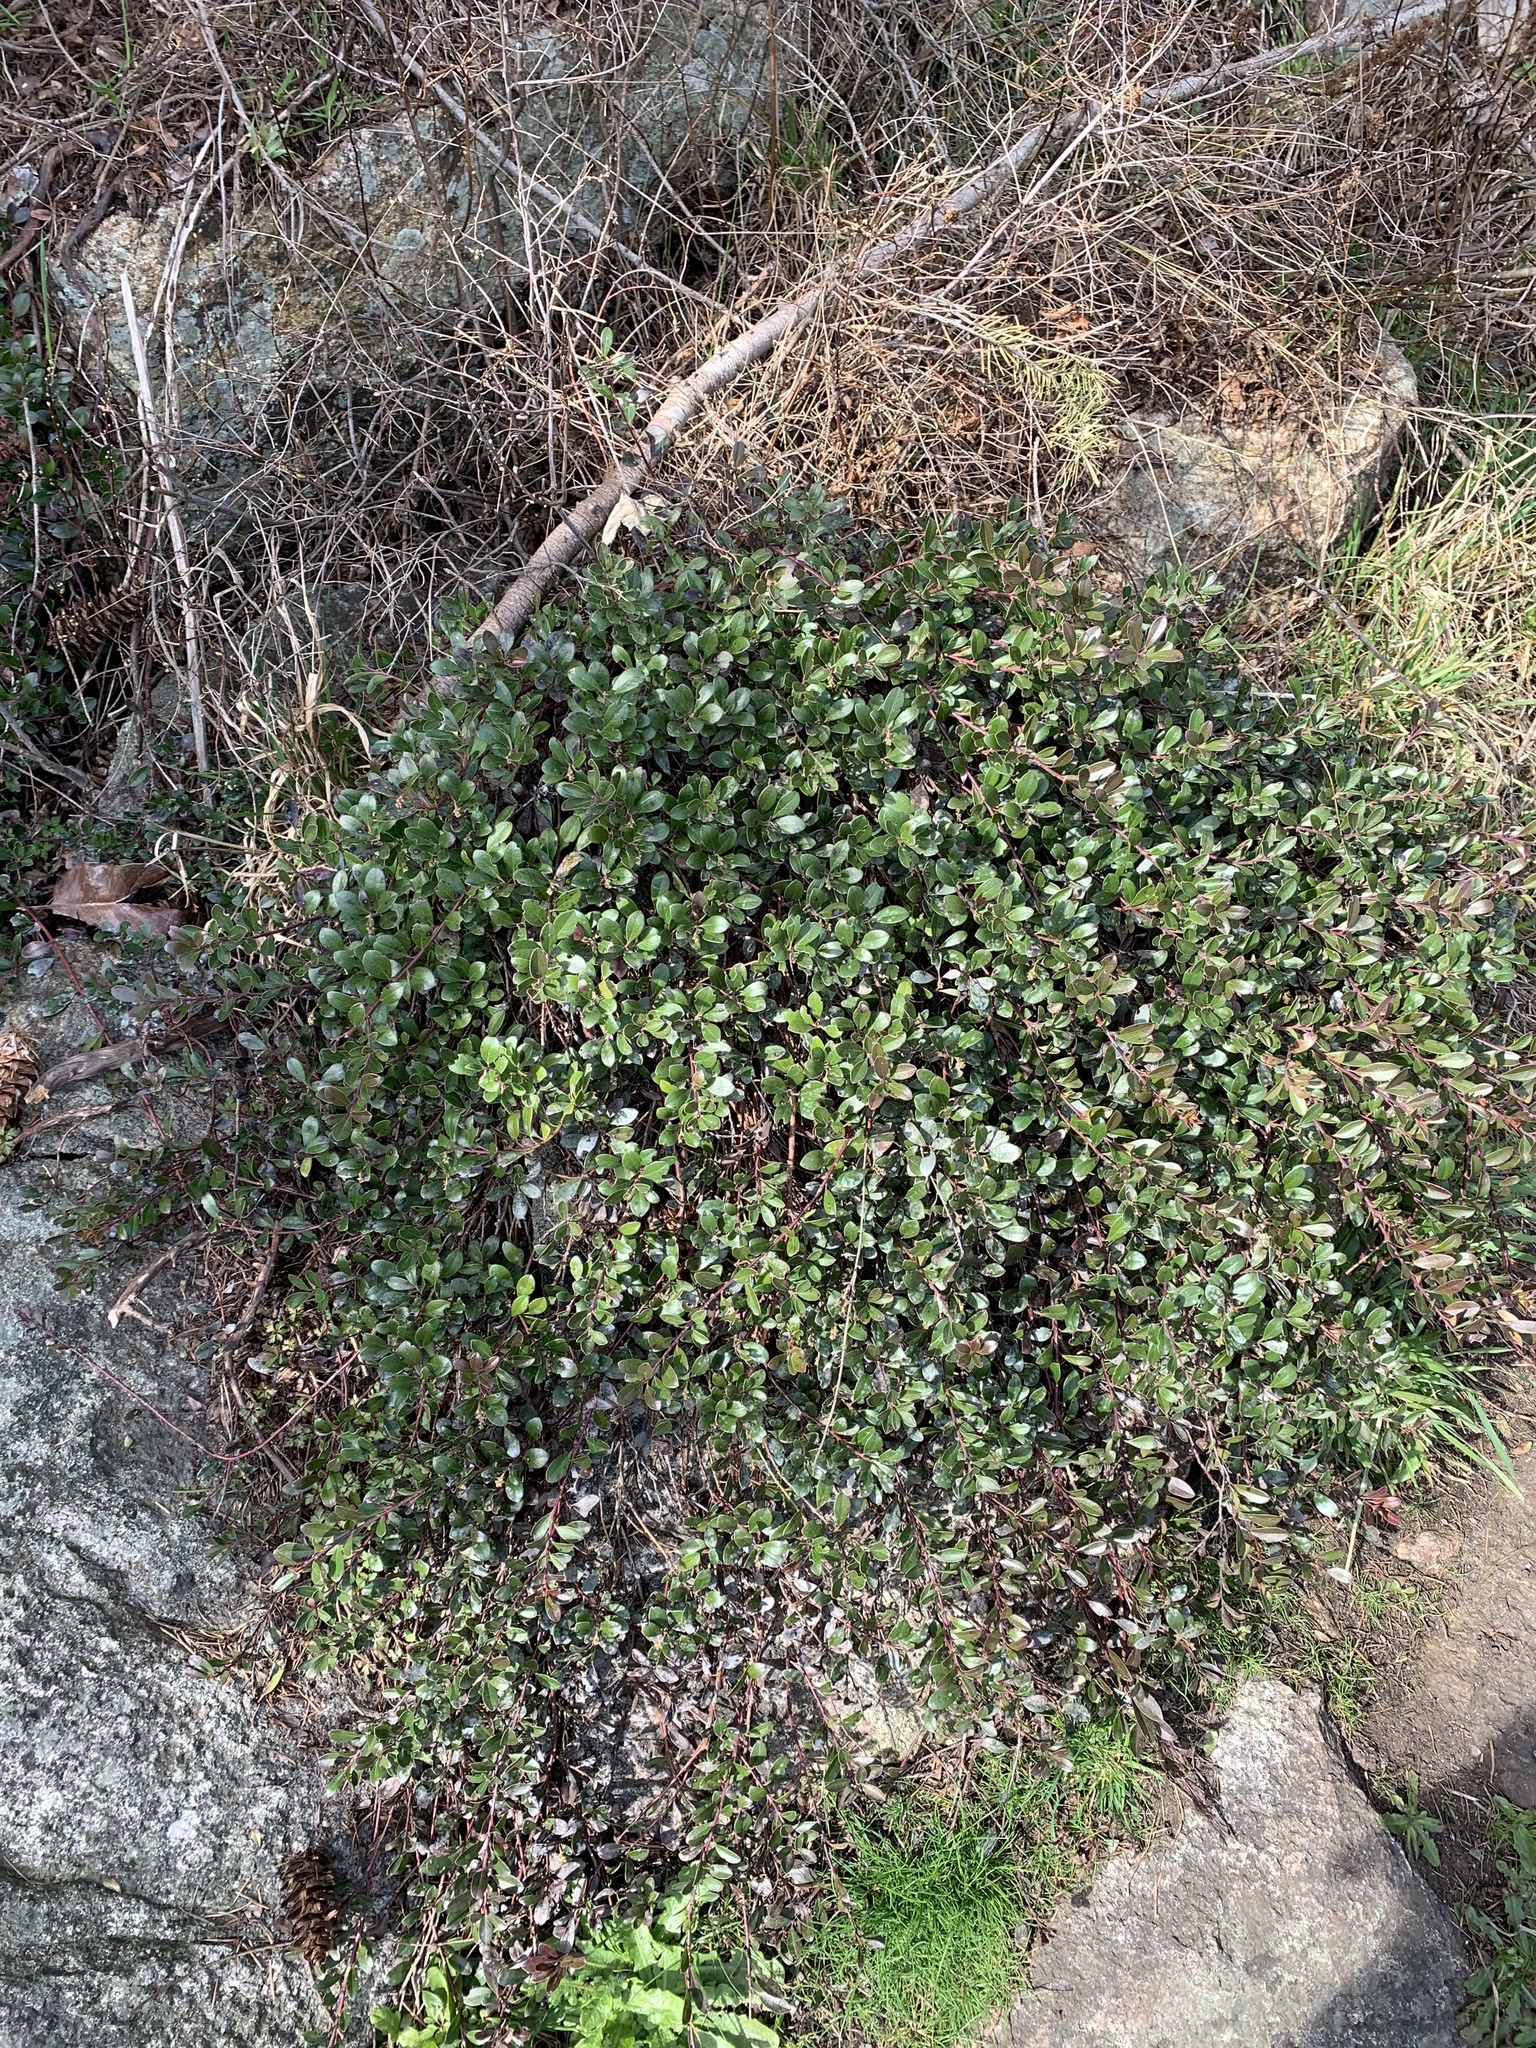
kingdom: Plantae
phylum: Tracheophyta
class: Magnoliopsida
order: Ericales
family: Ericaceae
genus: Arctostaphylos
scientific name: Arctostaphylos uva-ursi
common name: Bearberry
